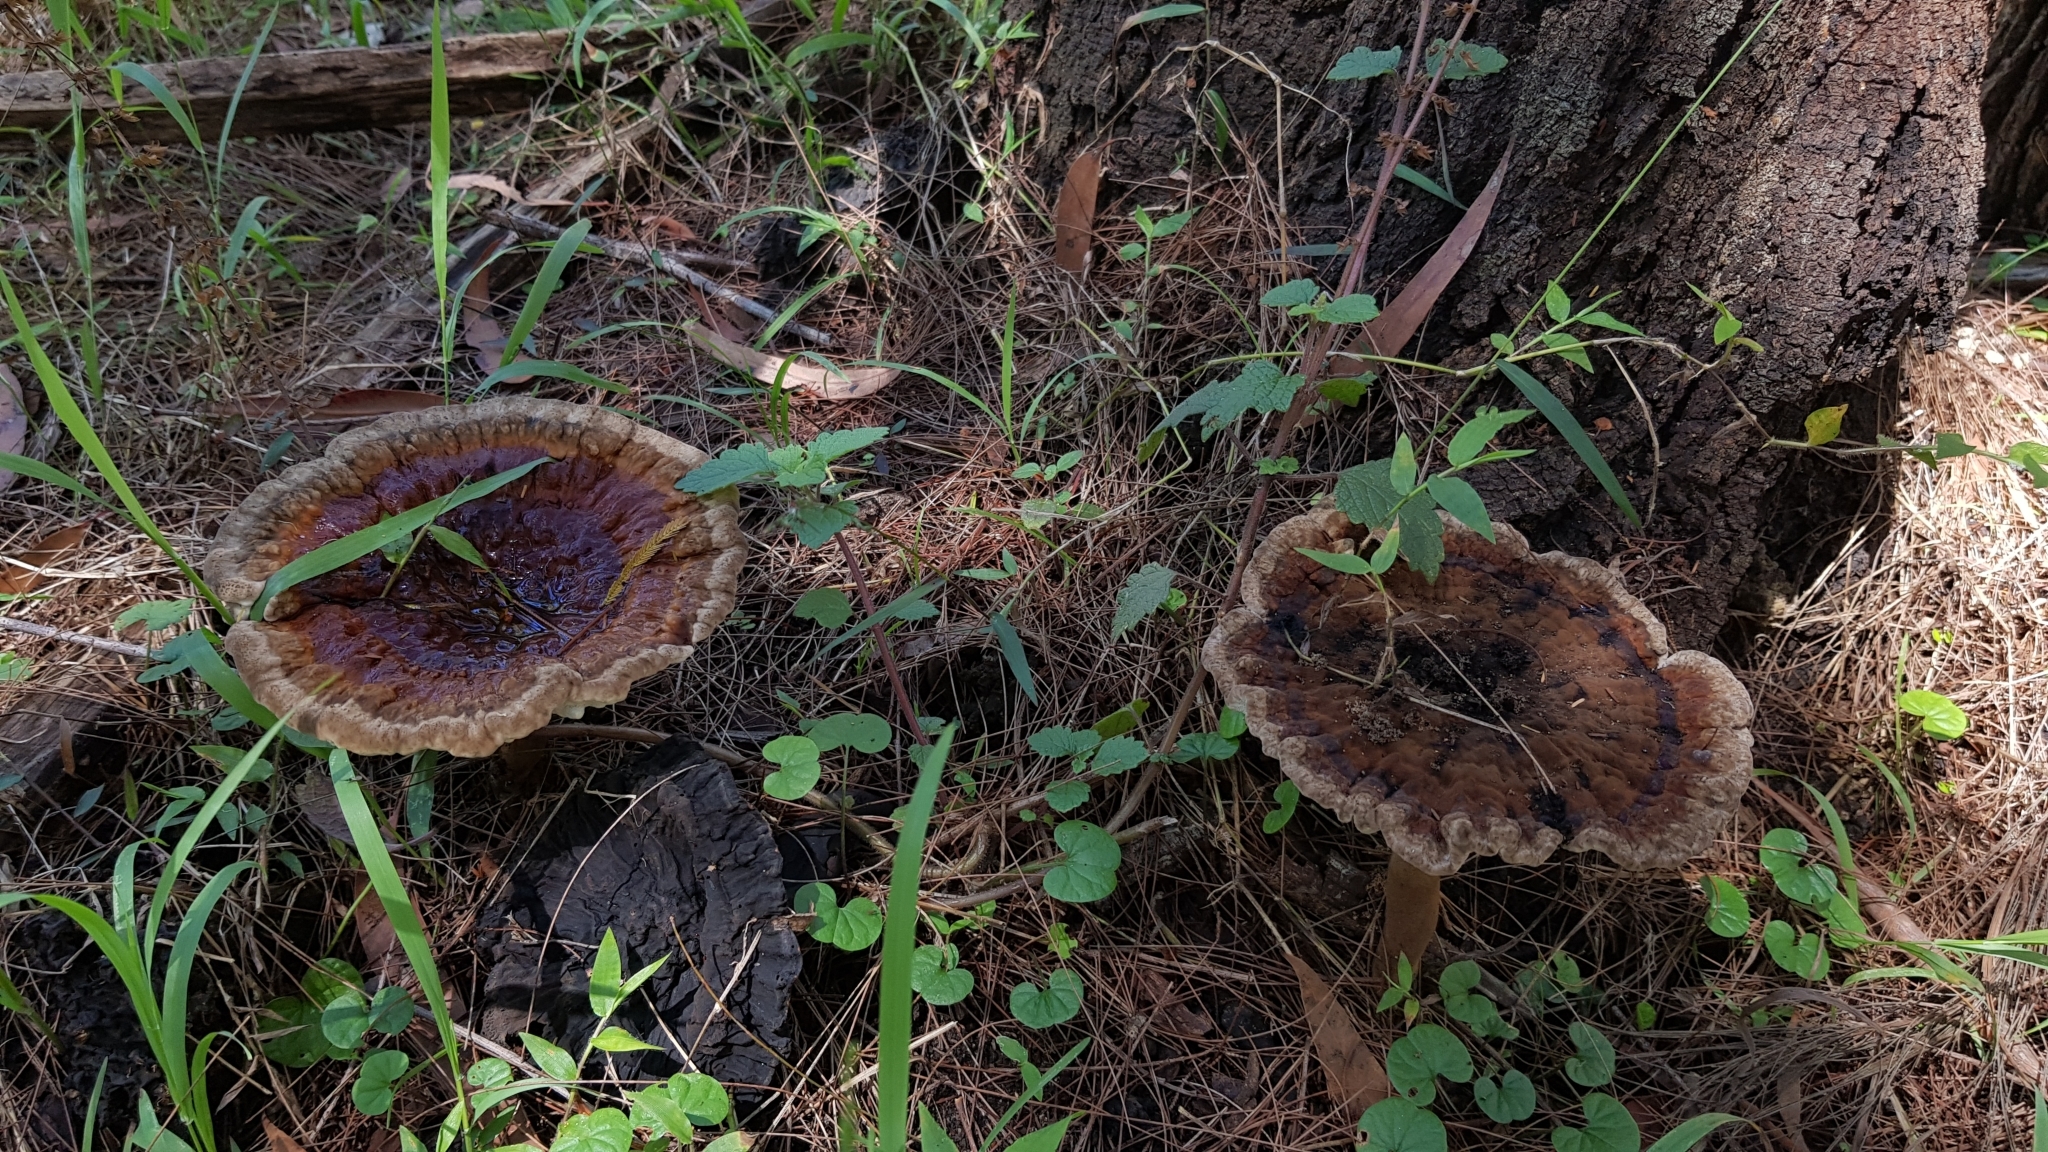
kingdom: Fungi
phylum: Basidiomycota
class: Agaricomycetes
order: Polyporales
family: Ganodermataceae
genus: Sanguinoderma
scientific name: Sanguinoderma rude
